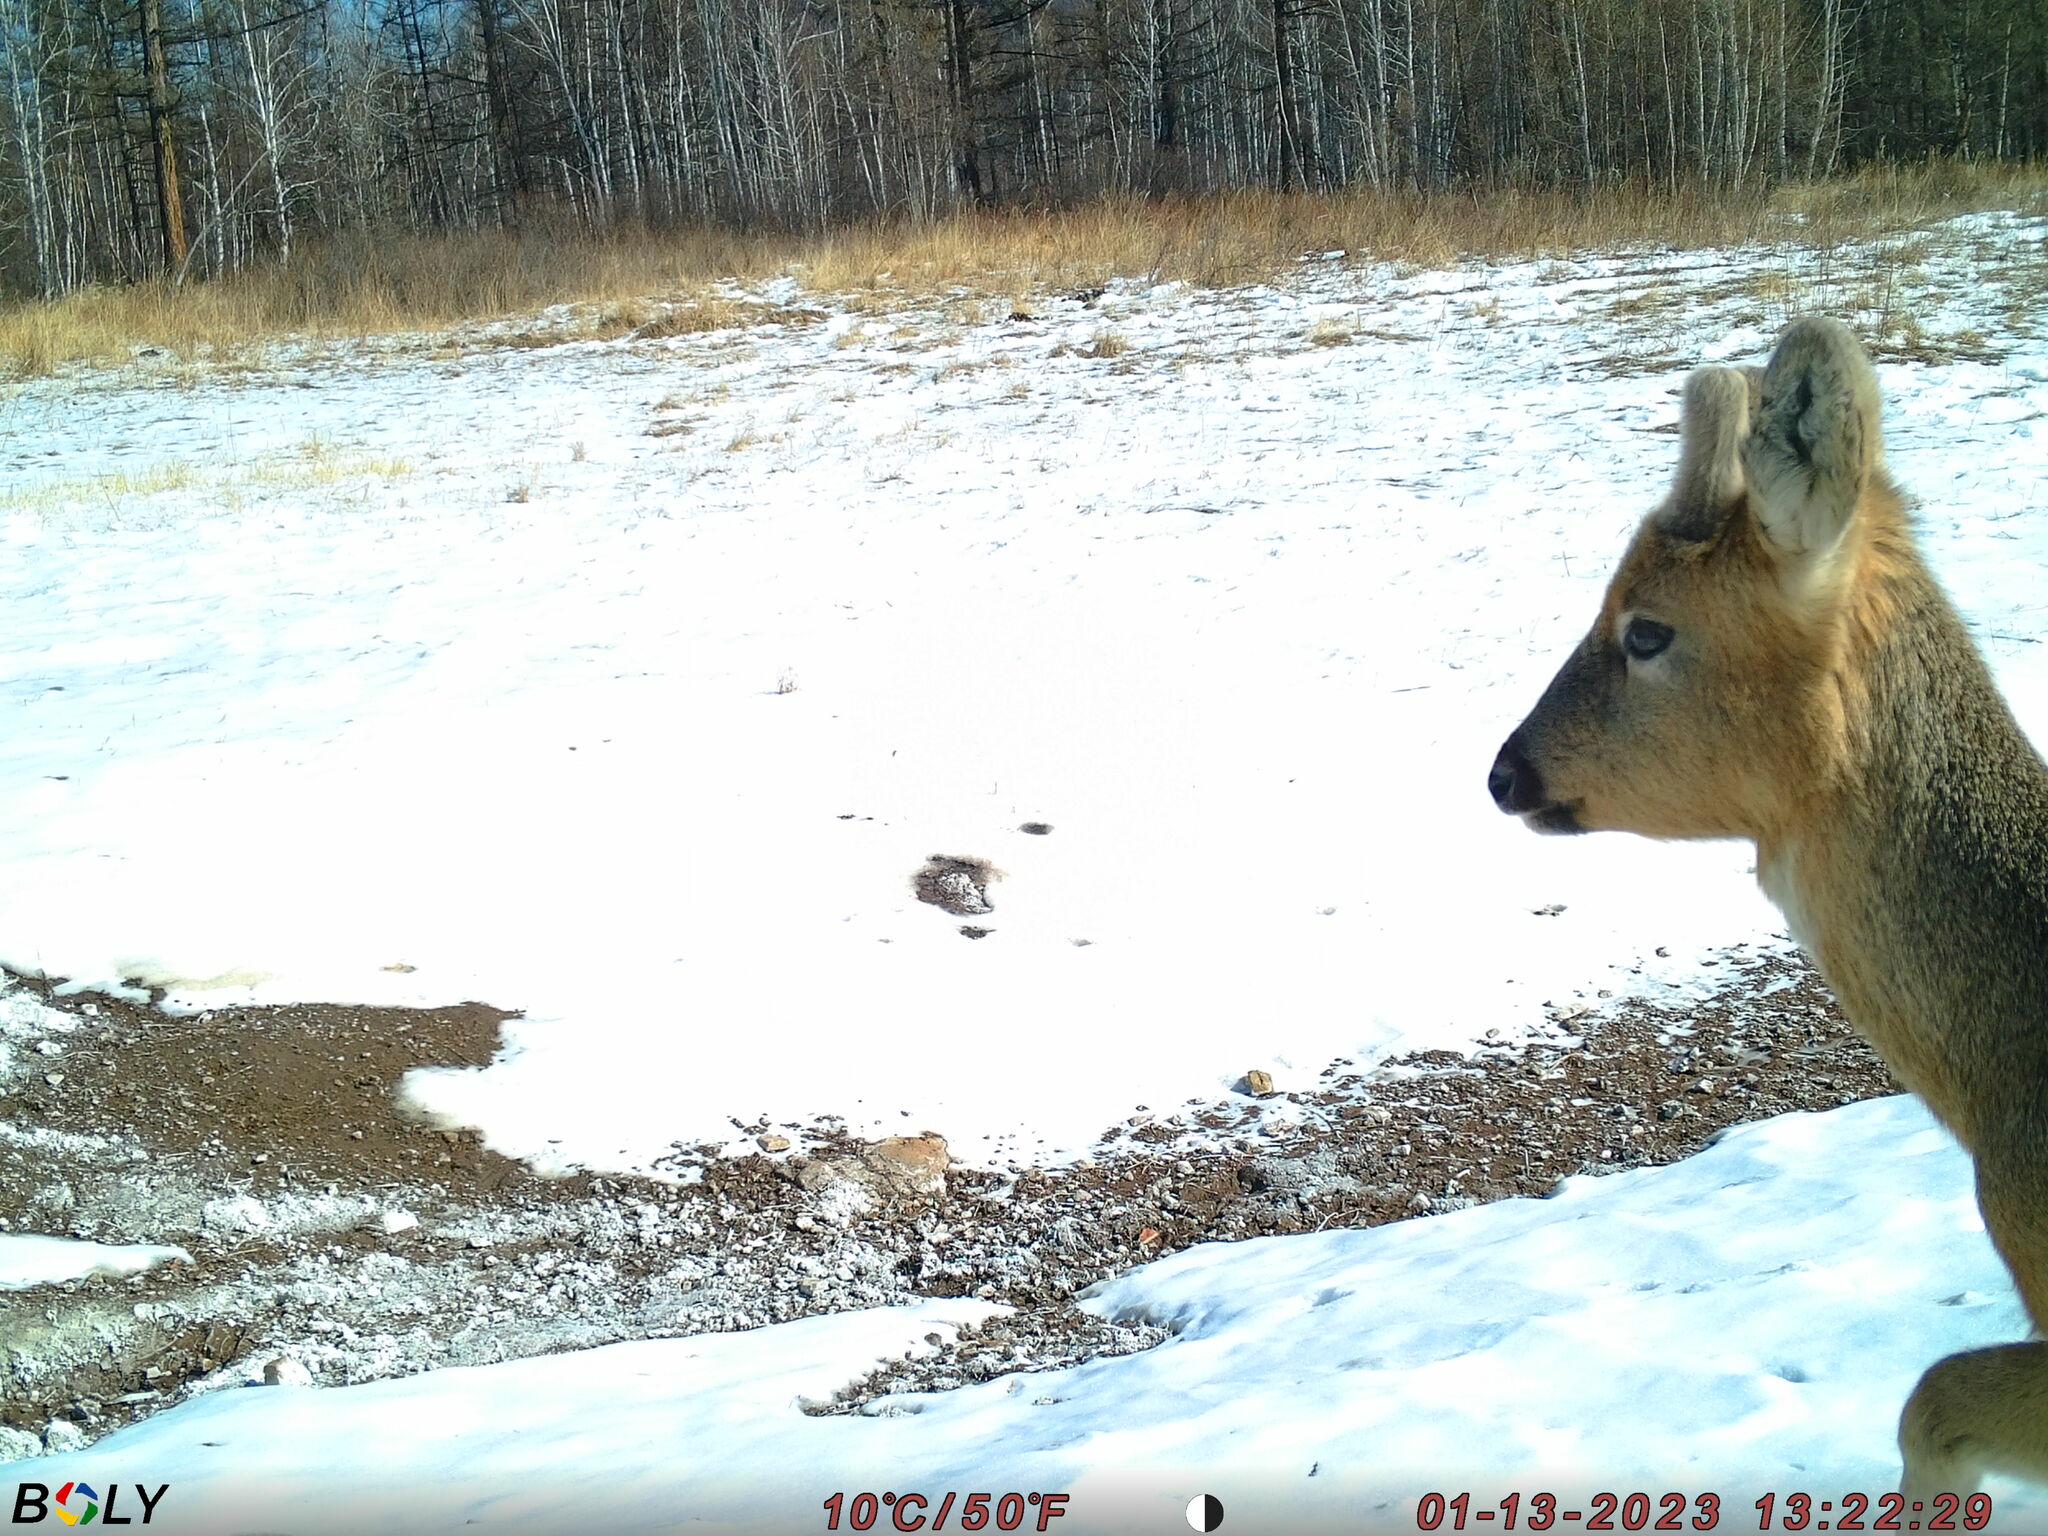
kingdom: Animalia
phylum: Chordata
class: Mammalia
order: Artiodactyla
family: Cervidae
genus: Capreolus
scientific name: Capreolus pygargus
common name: Siberian roe
